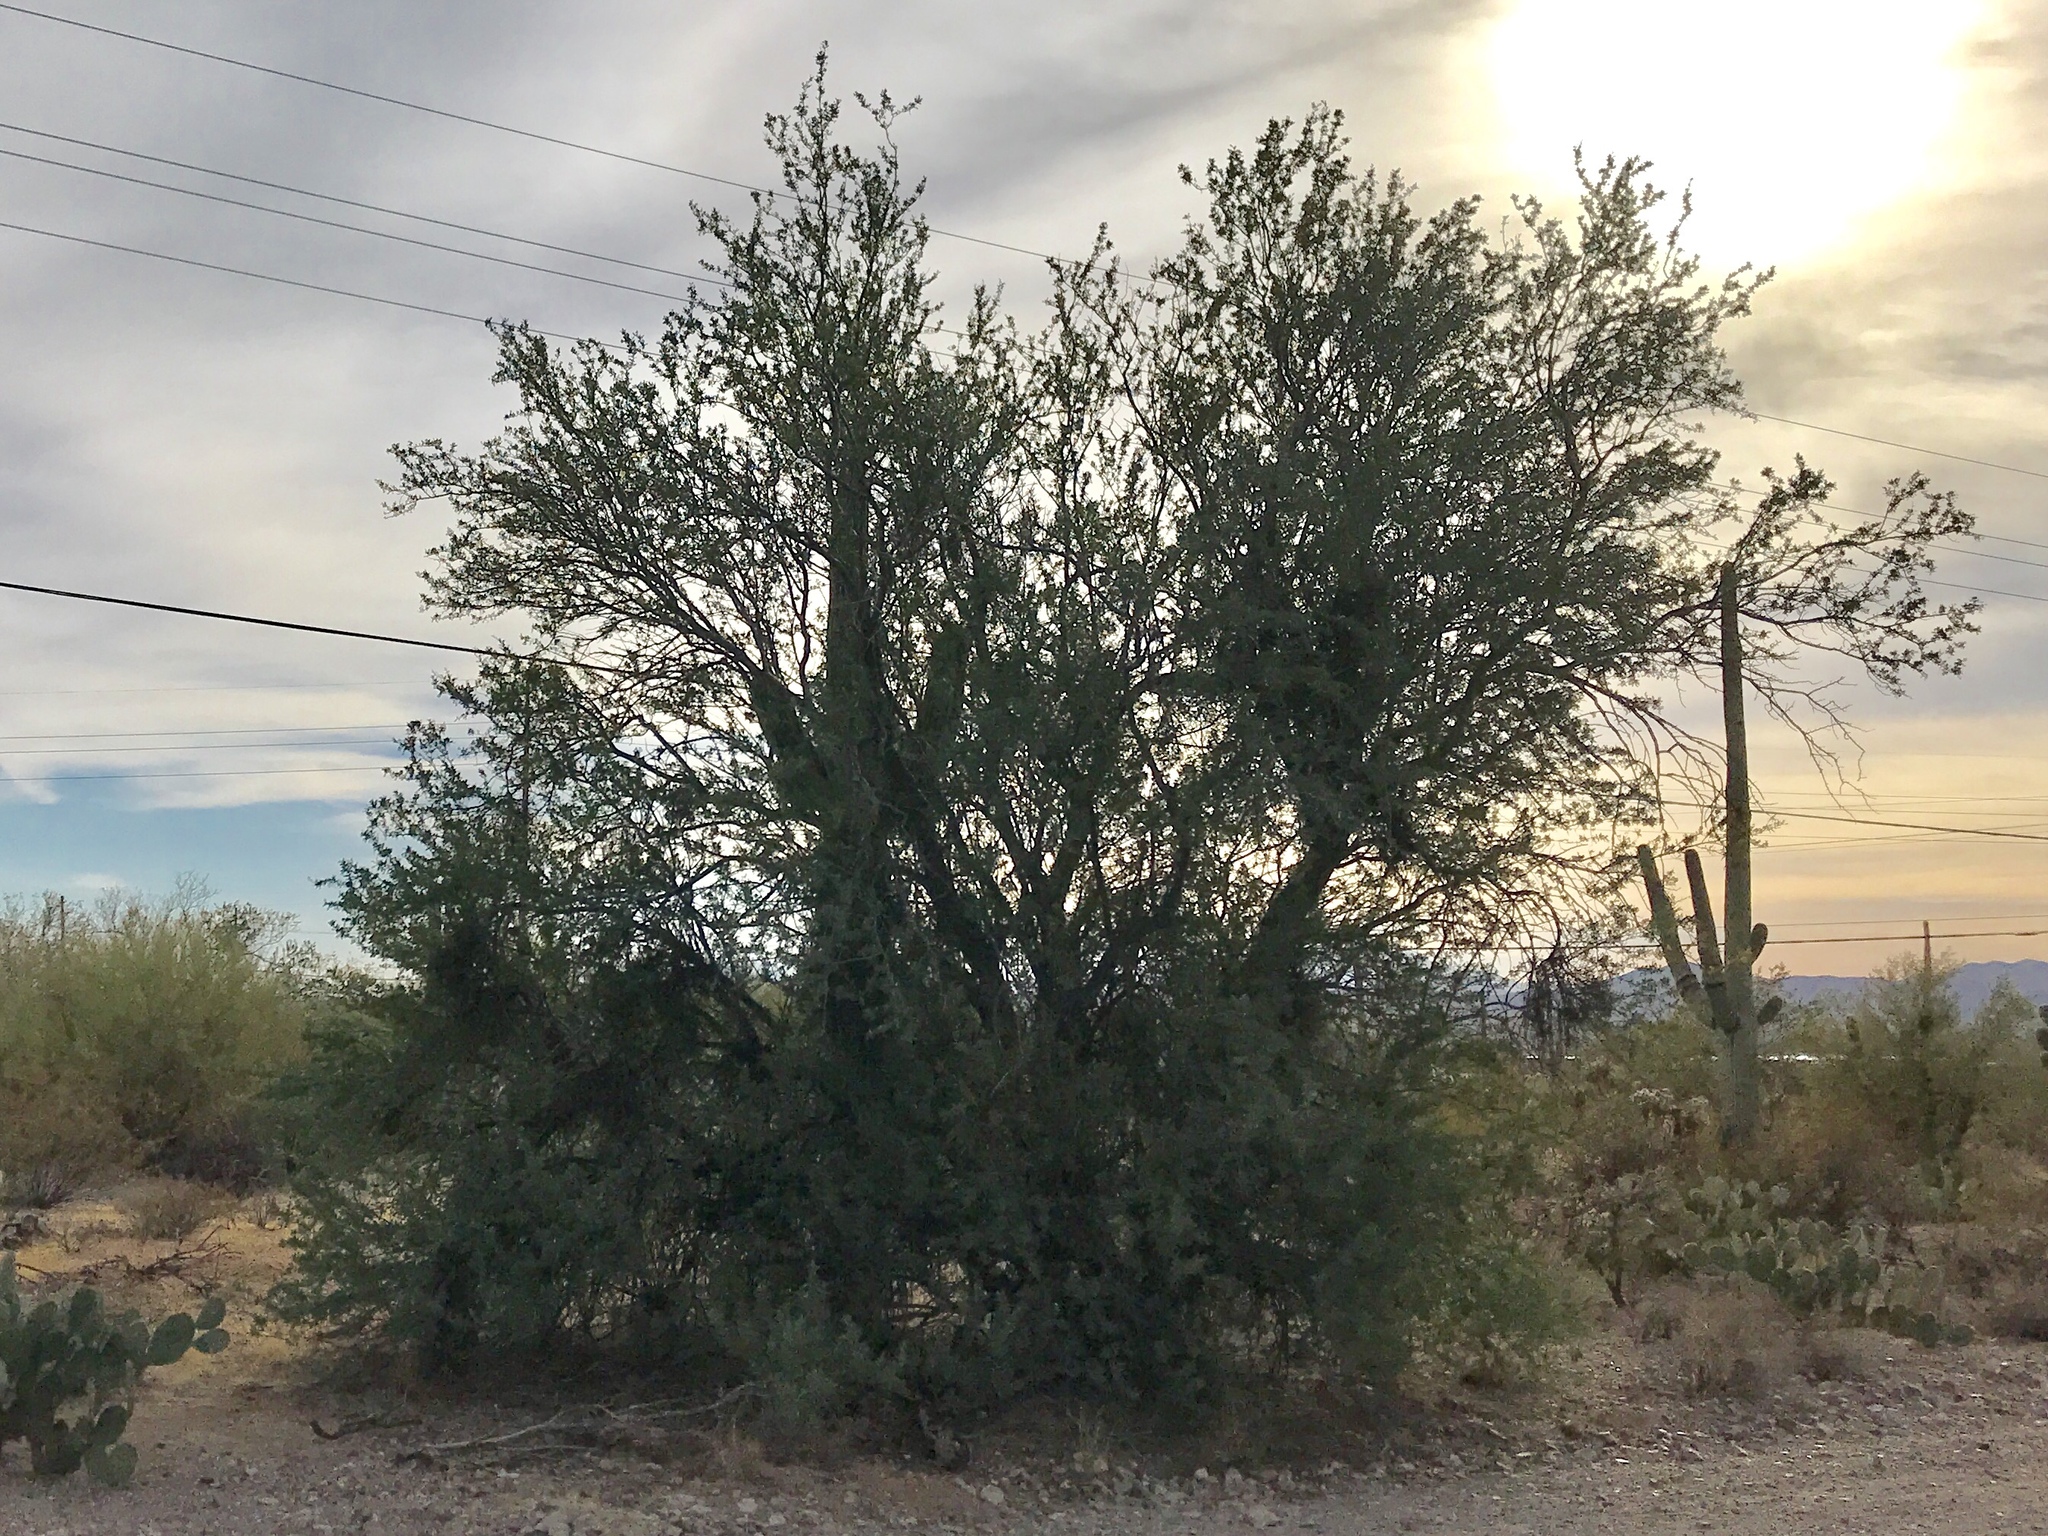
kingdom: Plantae
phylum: Tracheophyta
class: Magnoliopsida
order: Fabales
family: Fabaceae
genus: Olneya
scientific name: Olneya tesota
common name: Desert ironwood
